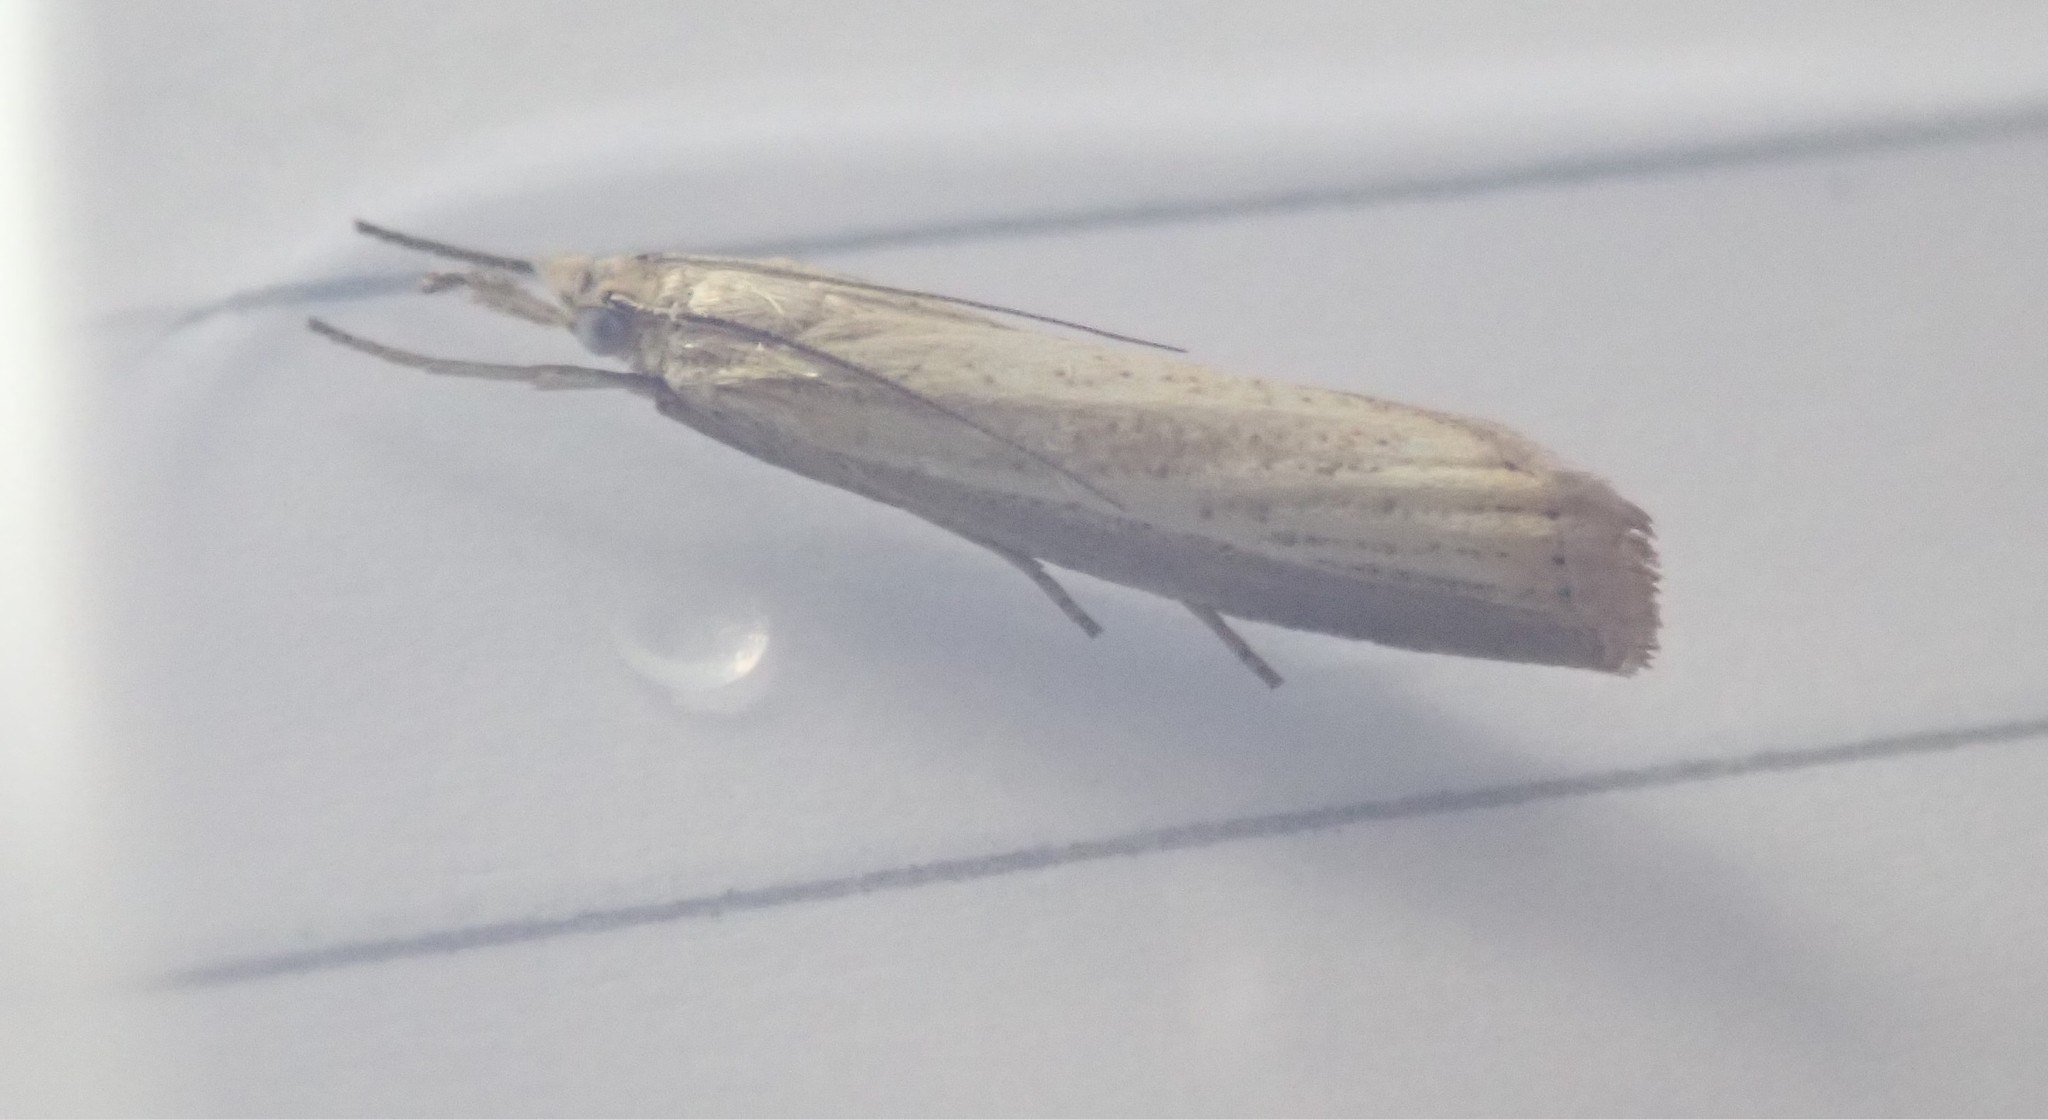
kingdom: Animalia
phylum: Arthropoda
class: Insecta
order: Lepidoptera
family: Crambidae
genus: Agriphila
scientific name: Agriphila straminella
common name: Straw grass-veneer
